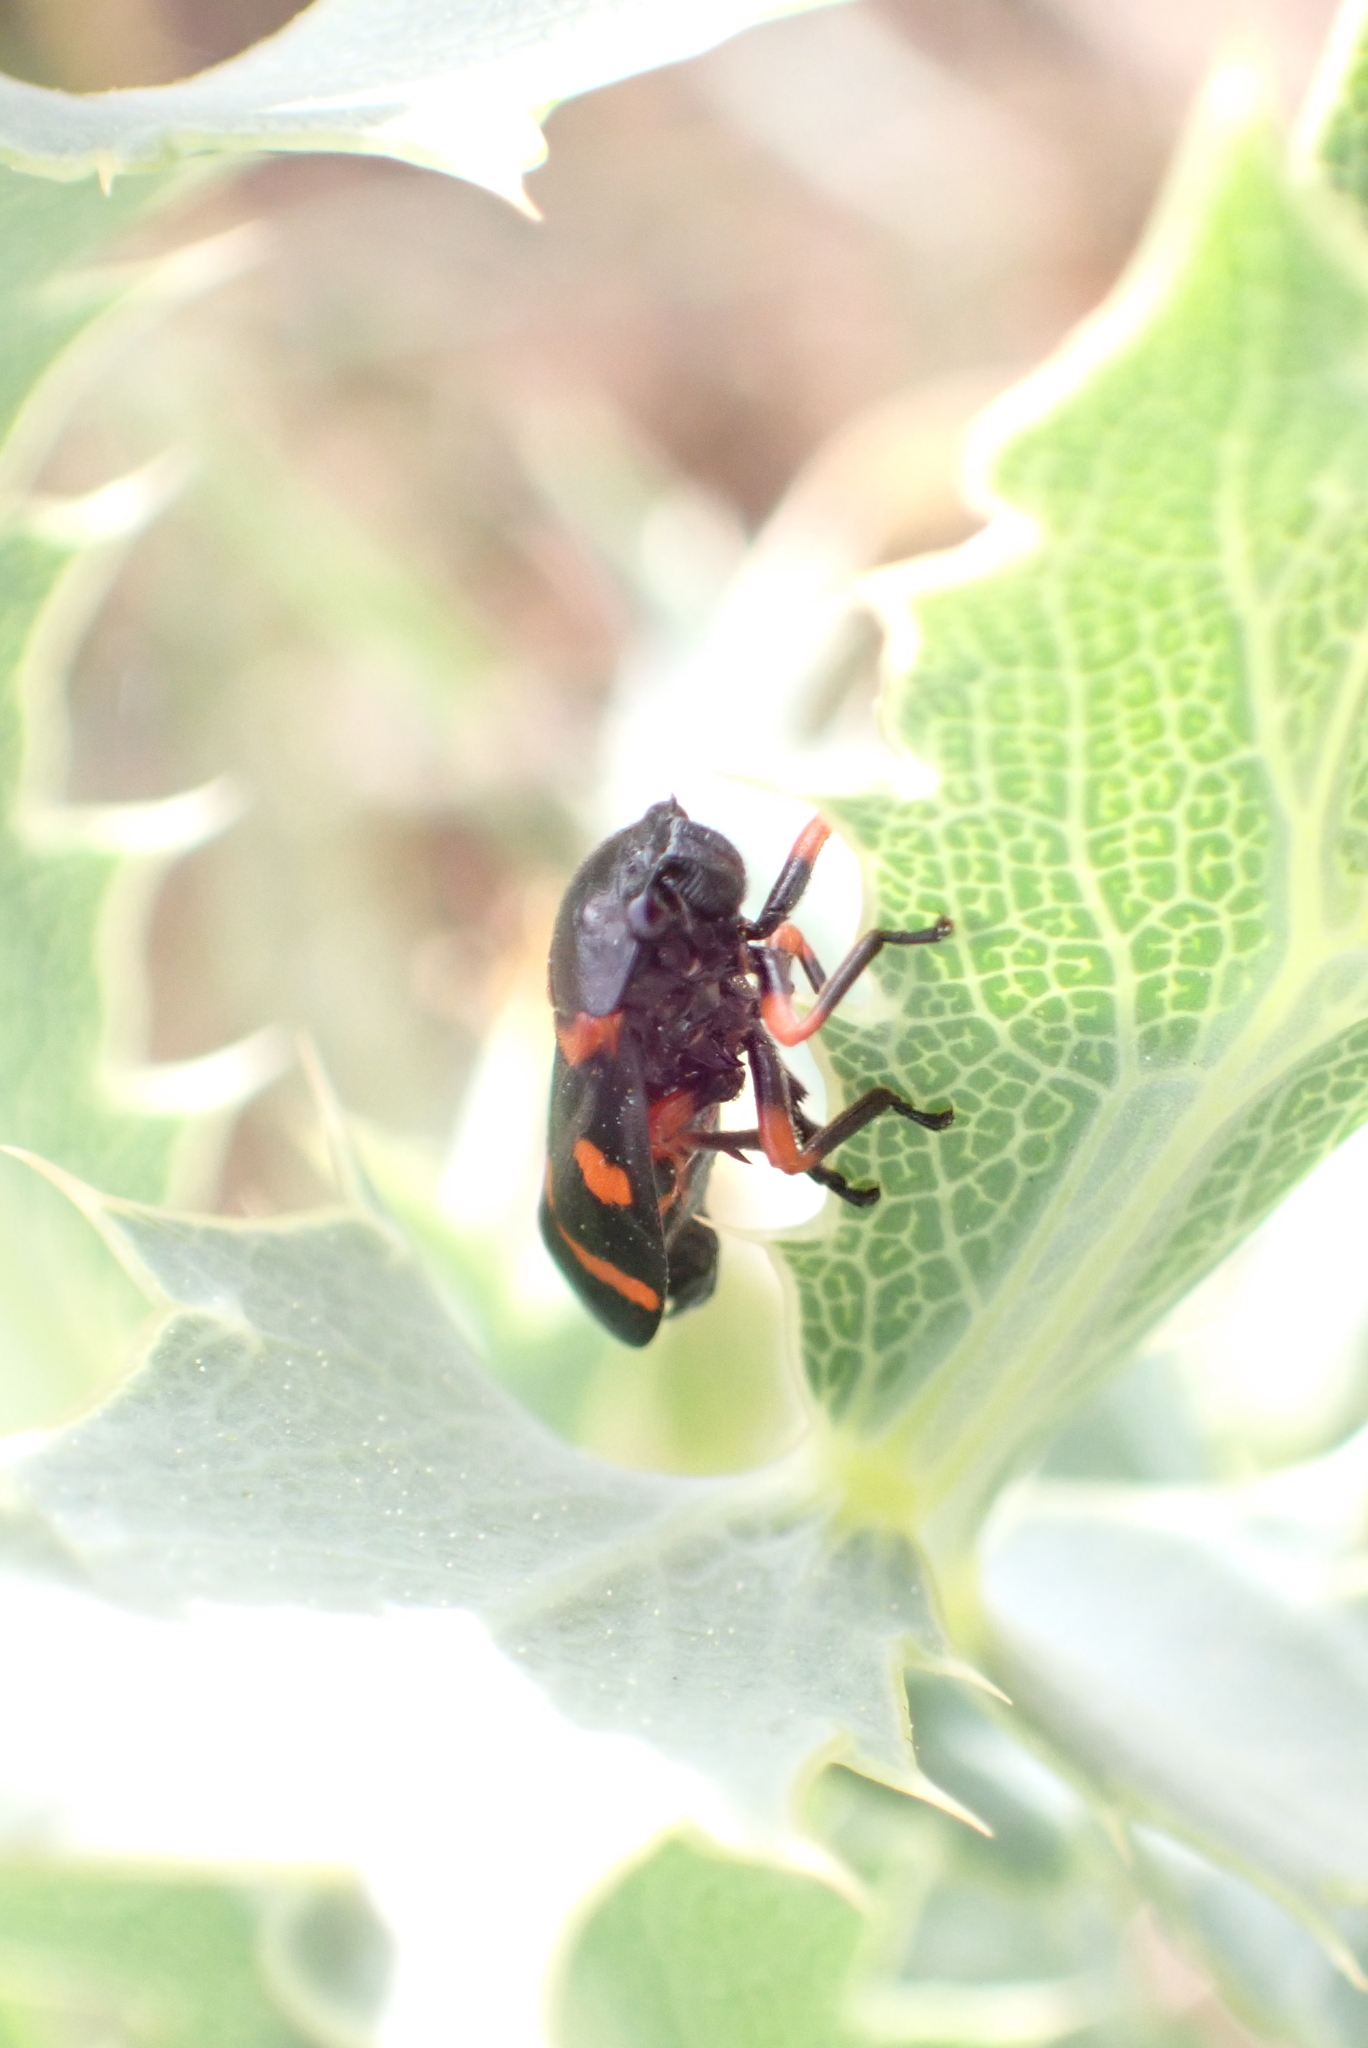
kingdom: Animalia
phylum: Arthropoda
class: Insecta
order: Hemiptera
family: Cercopidae
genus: Cercopis
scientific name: Cercopis intermedia
